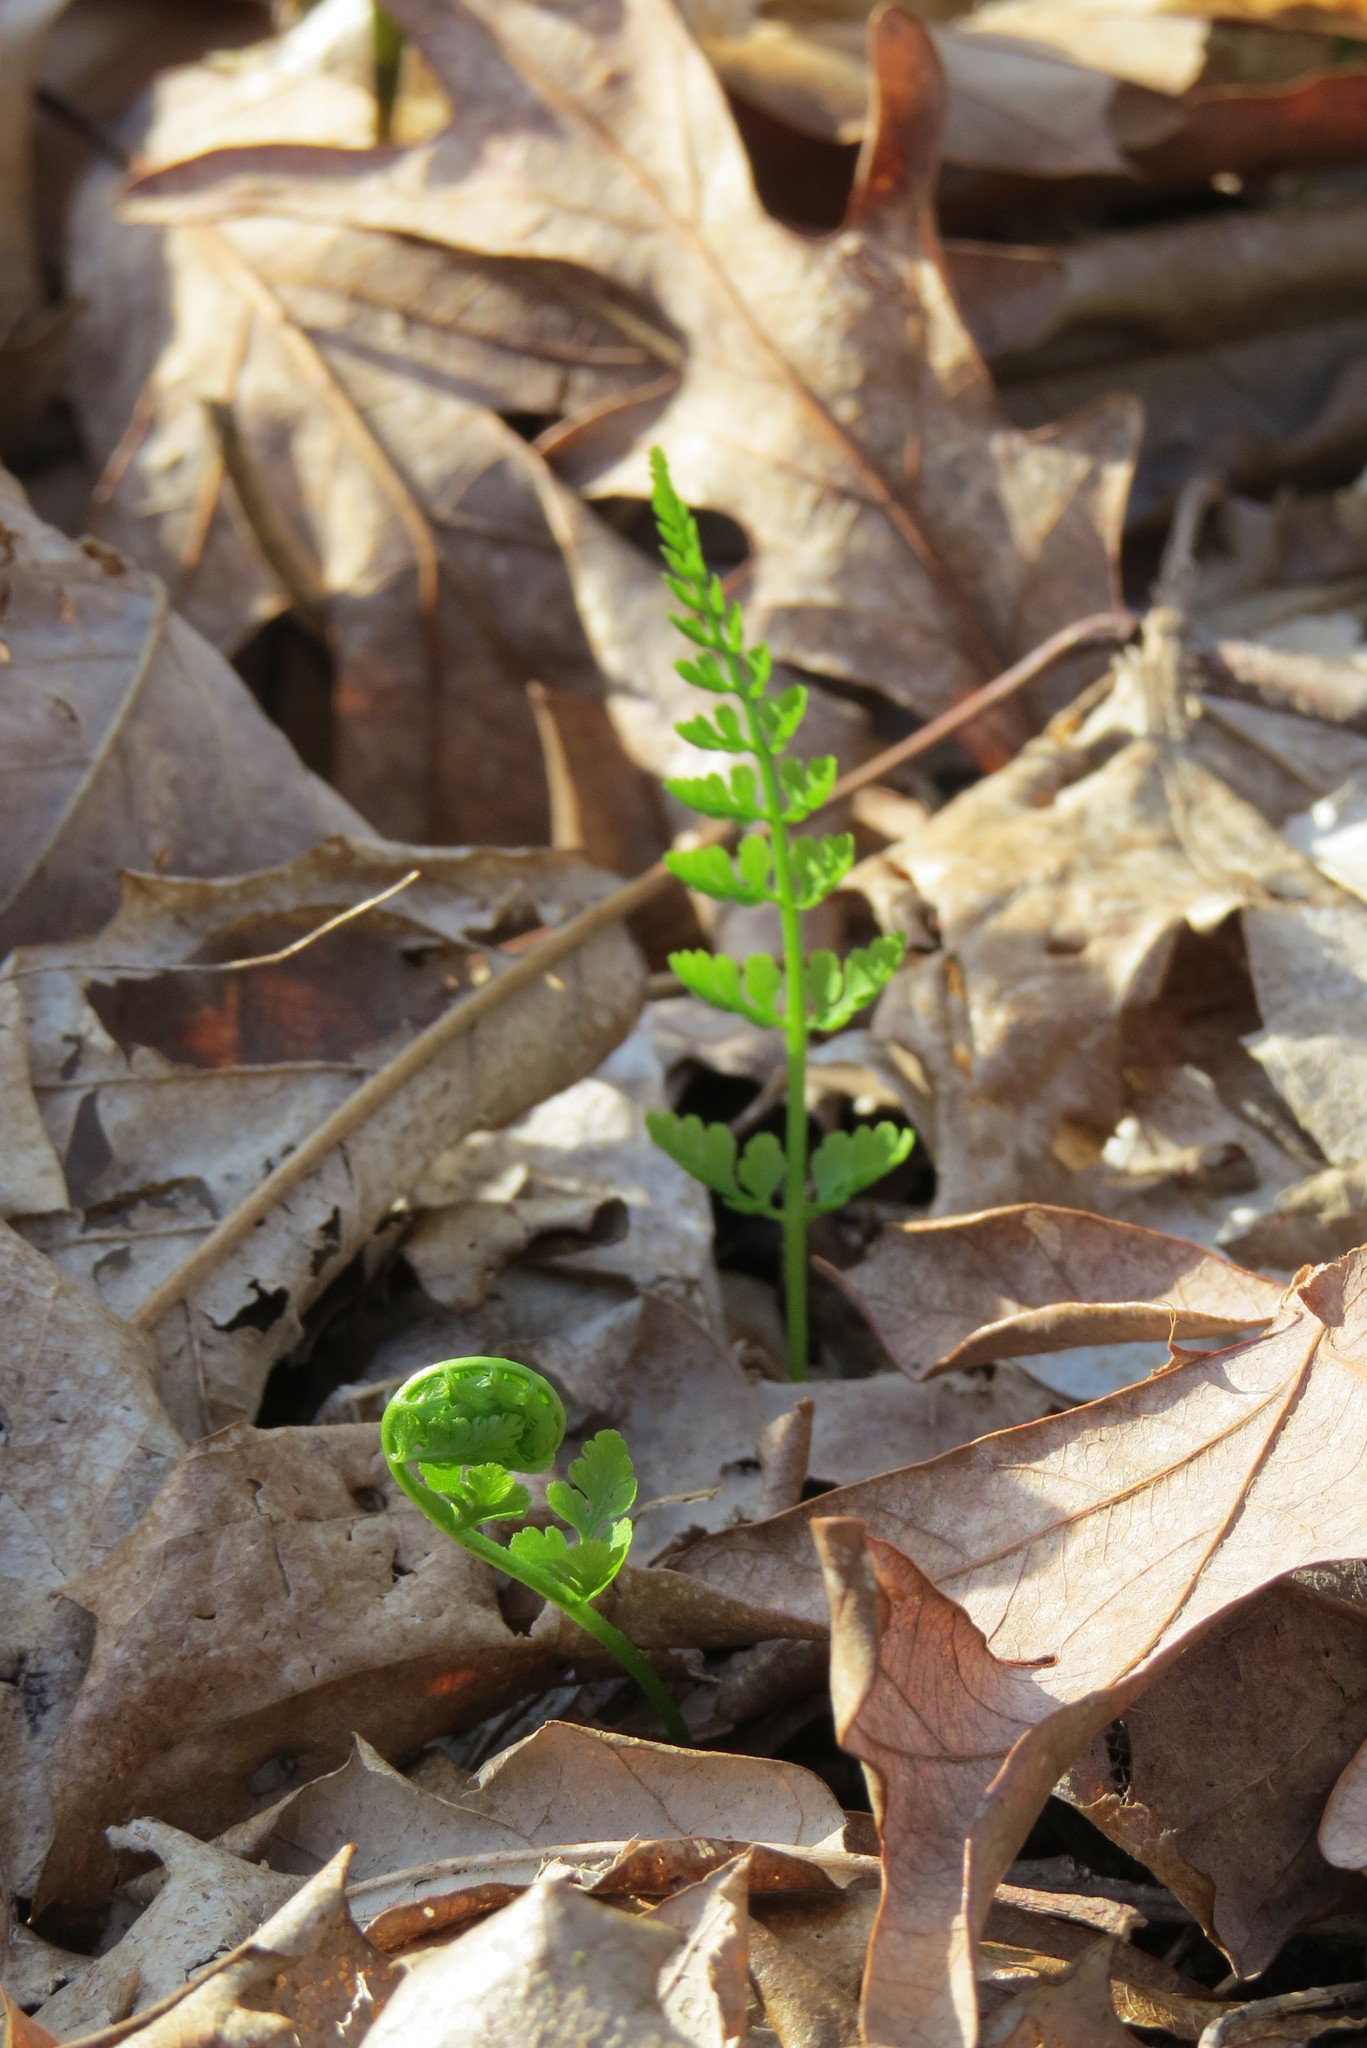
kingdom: Plantae
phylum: Tracheophyta
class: Polypodiopsida
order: Polypodiales
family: Cystopteridaceae
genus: Cystopteris
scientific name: Cystopteris protrusa
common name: Lowland brittle fern
